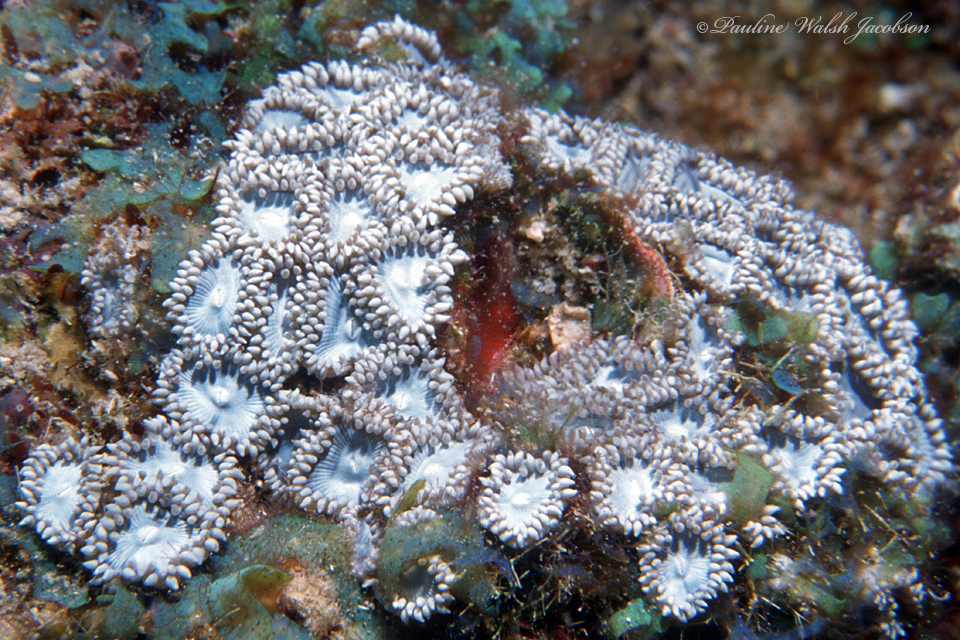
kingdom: Animalia
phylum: Cnidaria
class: Anthozoa
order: Zoantharia
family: Zoanthidae
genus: Zoanthus
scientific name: Zoanthus pulchellus
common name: Mat zoanthid
